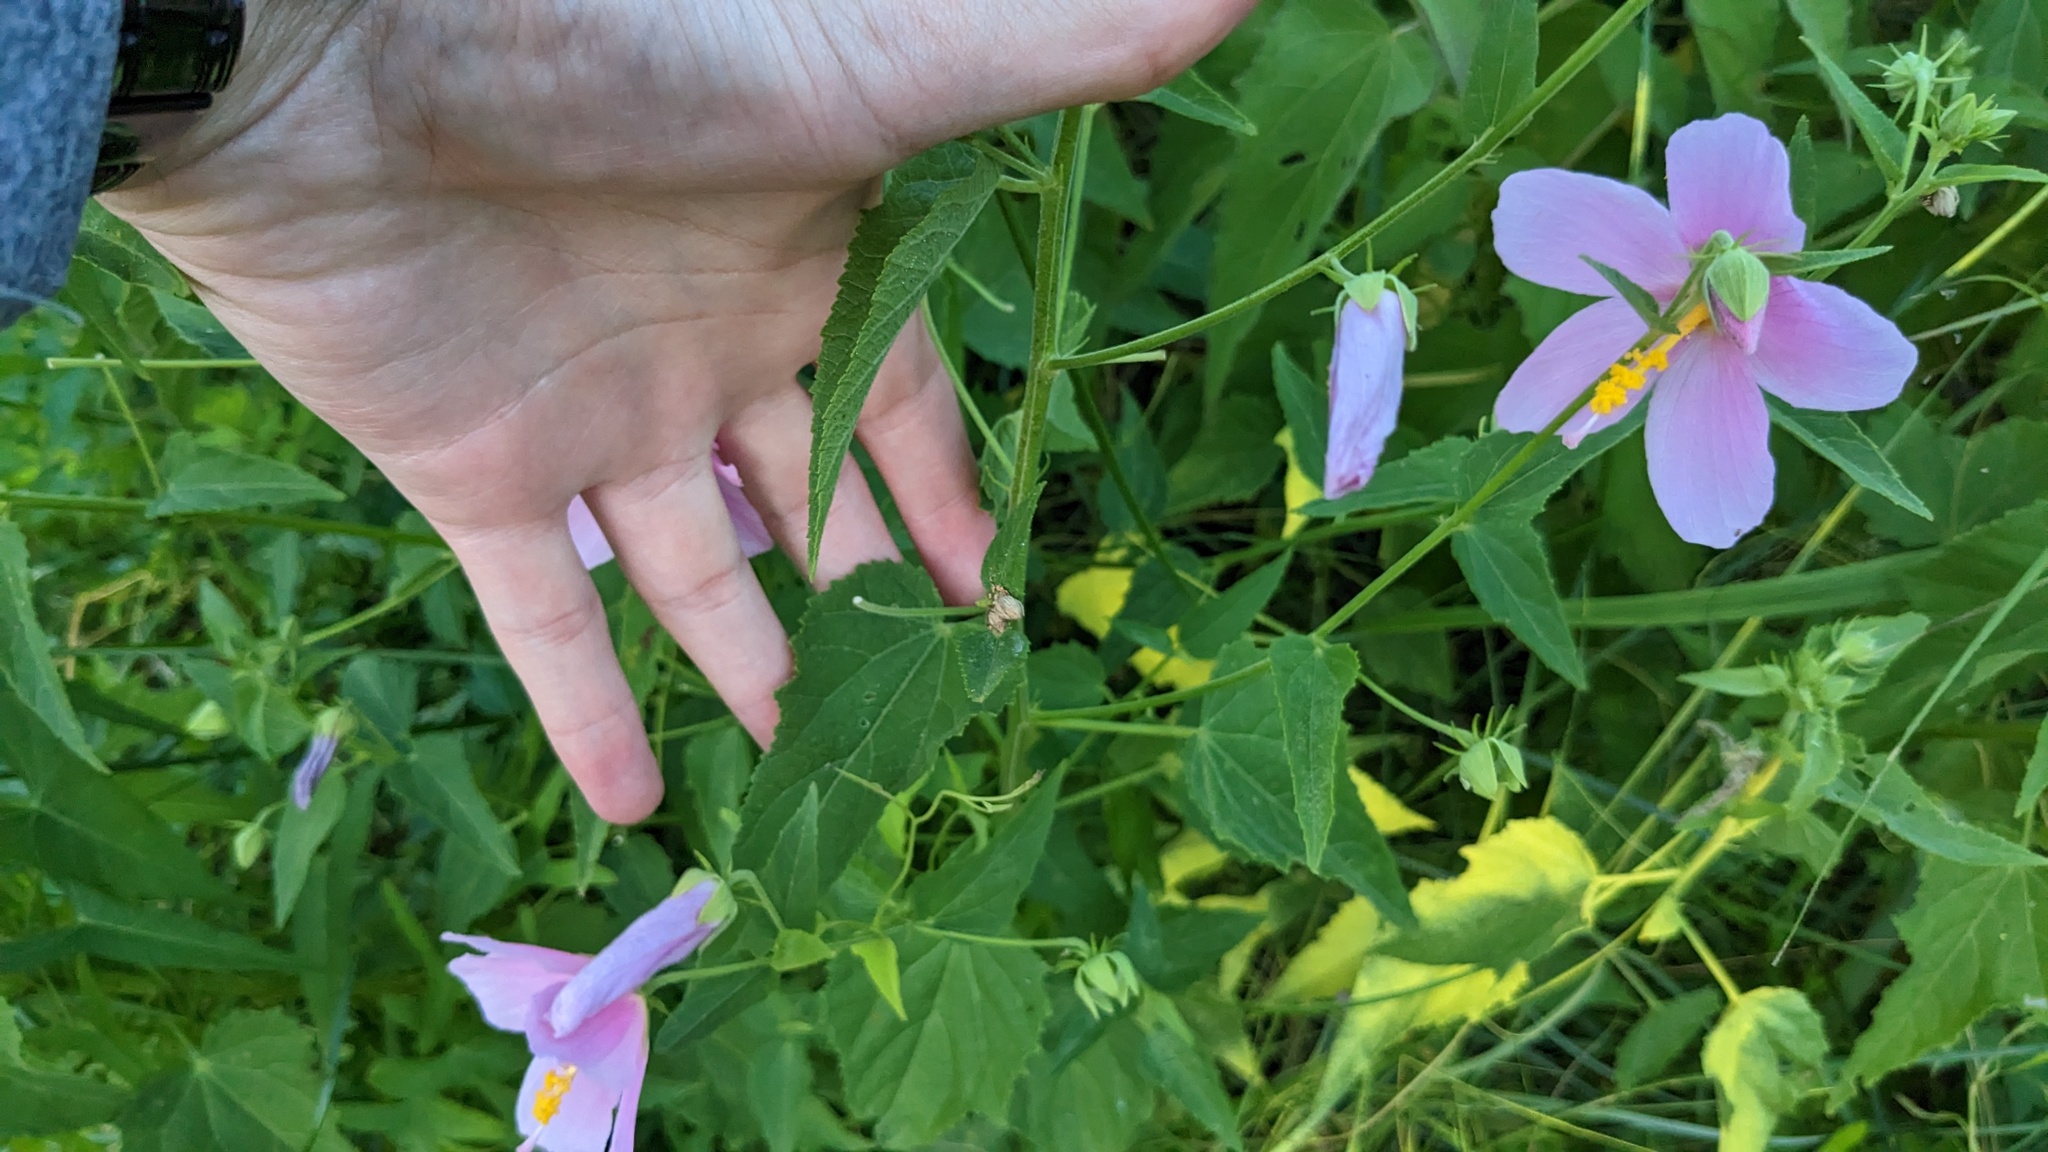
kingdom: Plantae
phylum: Tracheophyta
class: Magnoliopsida
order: Malvales
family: Malvaceae
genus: Kosteletzkya
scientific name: Kosteletzkya pentacarpos
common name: Virginia saltmarsh mallow
